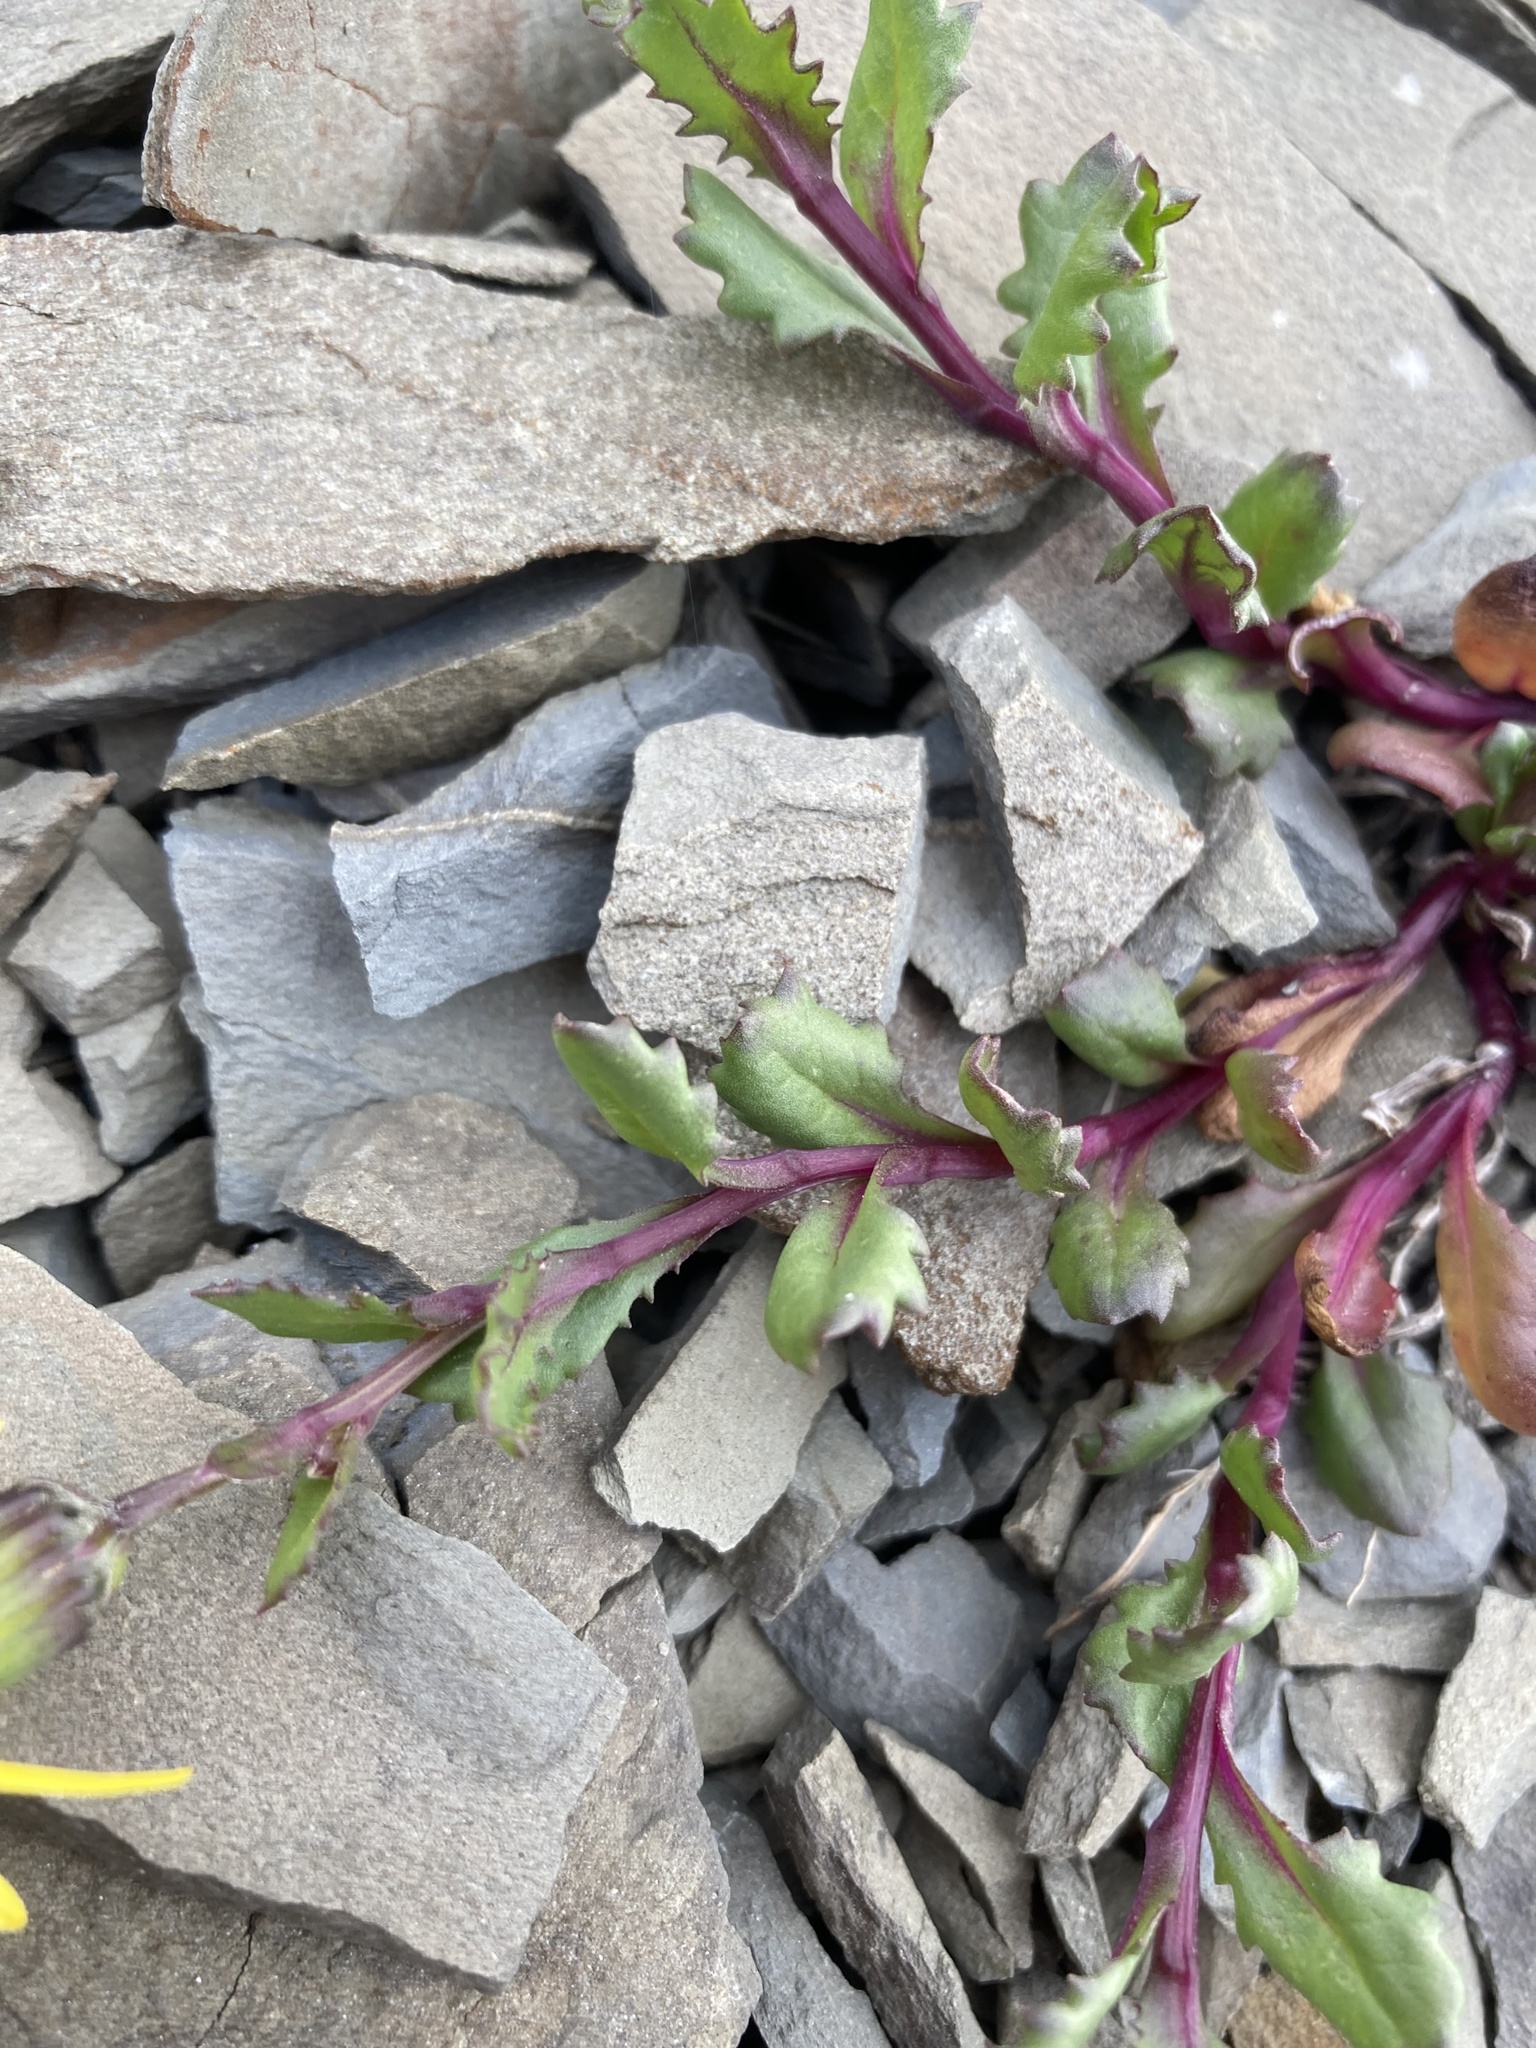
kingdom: Plantae
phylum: Tracheophyta
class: Magnoliopsida
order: Asterales
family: Asteraceae
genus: Senecio
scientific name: Senecio fremontii
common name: Fremont's groundsel
